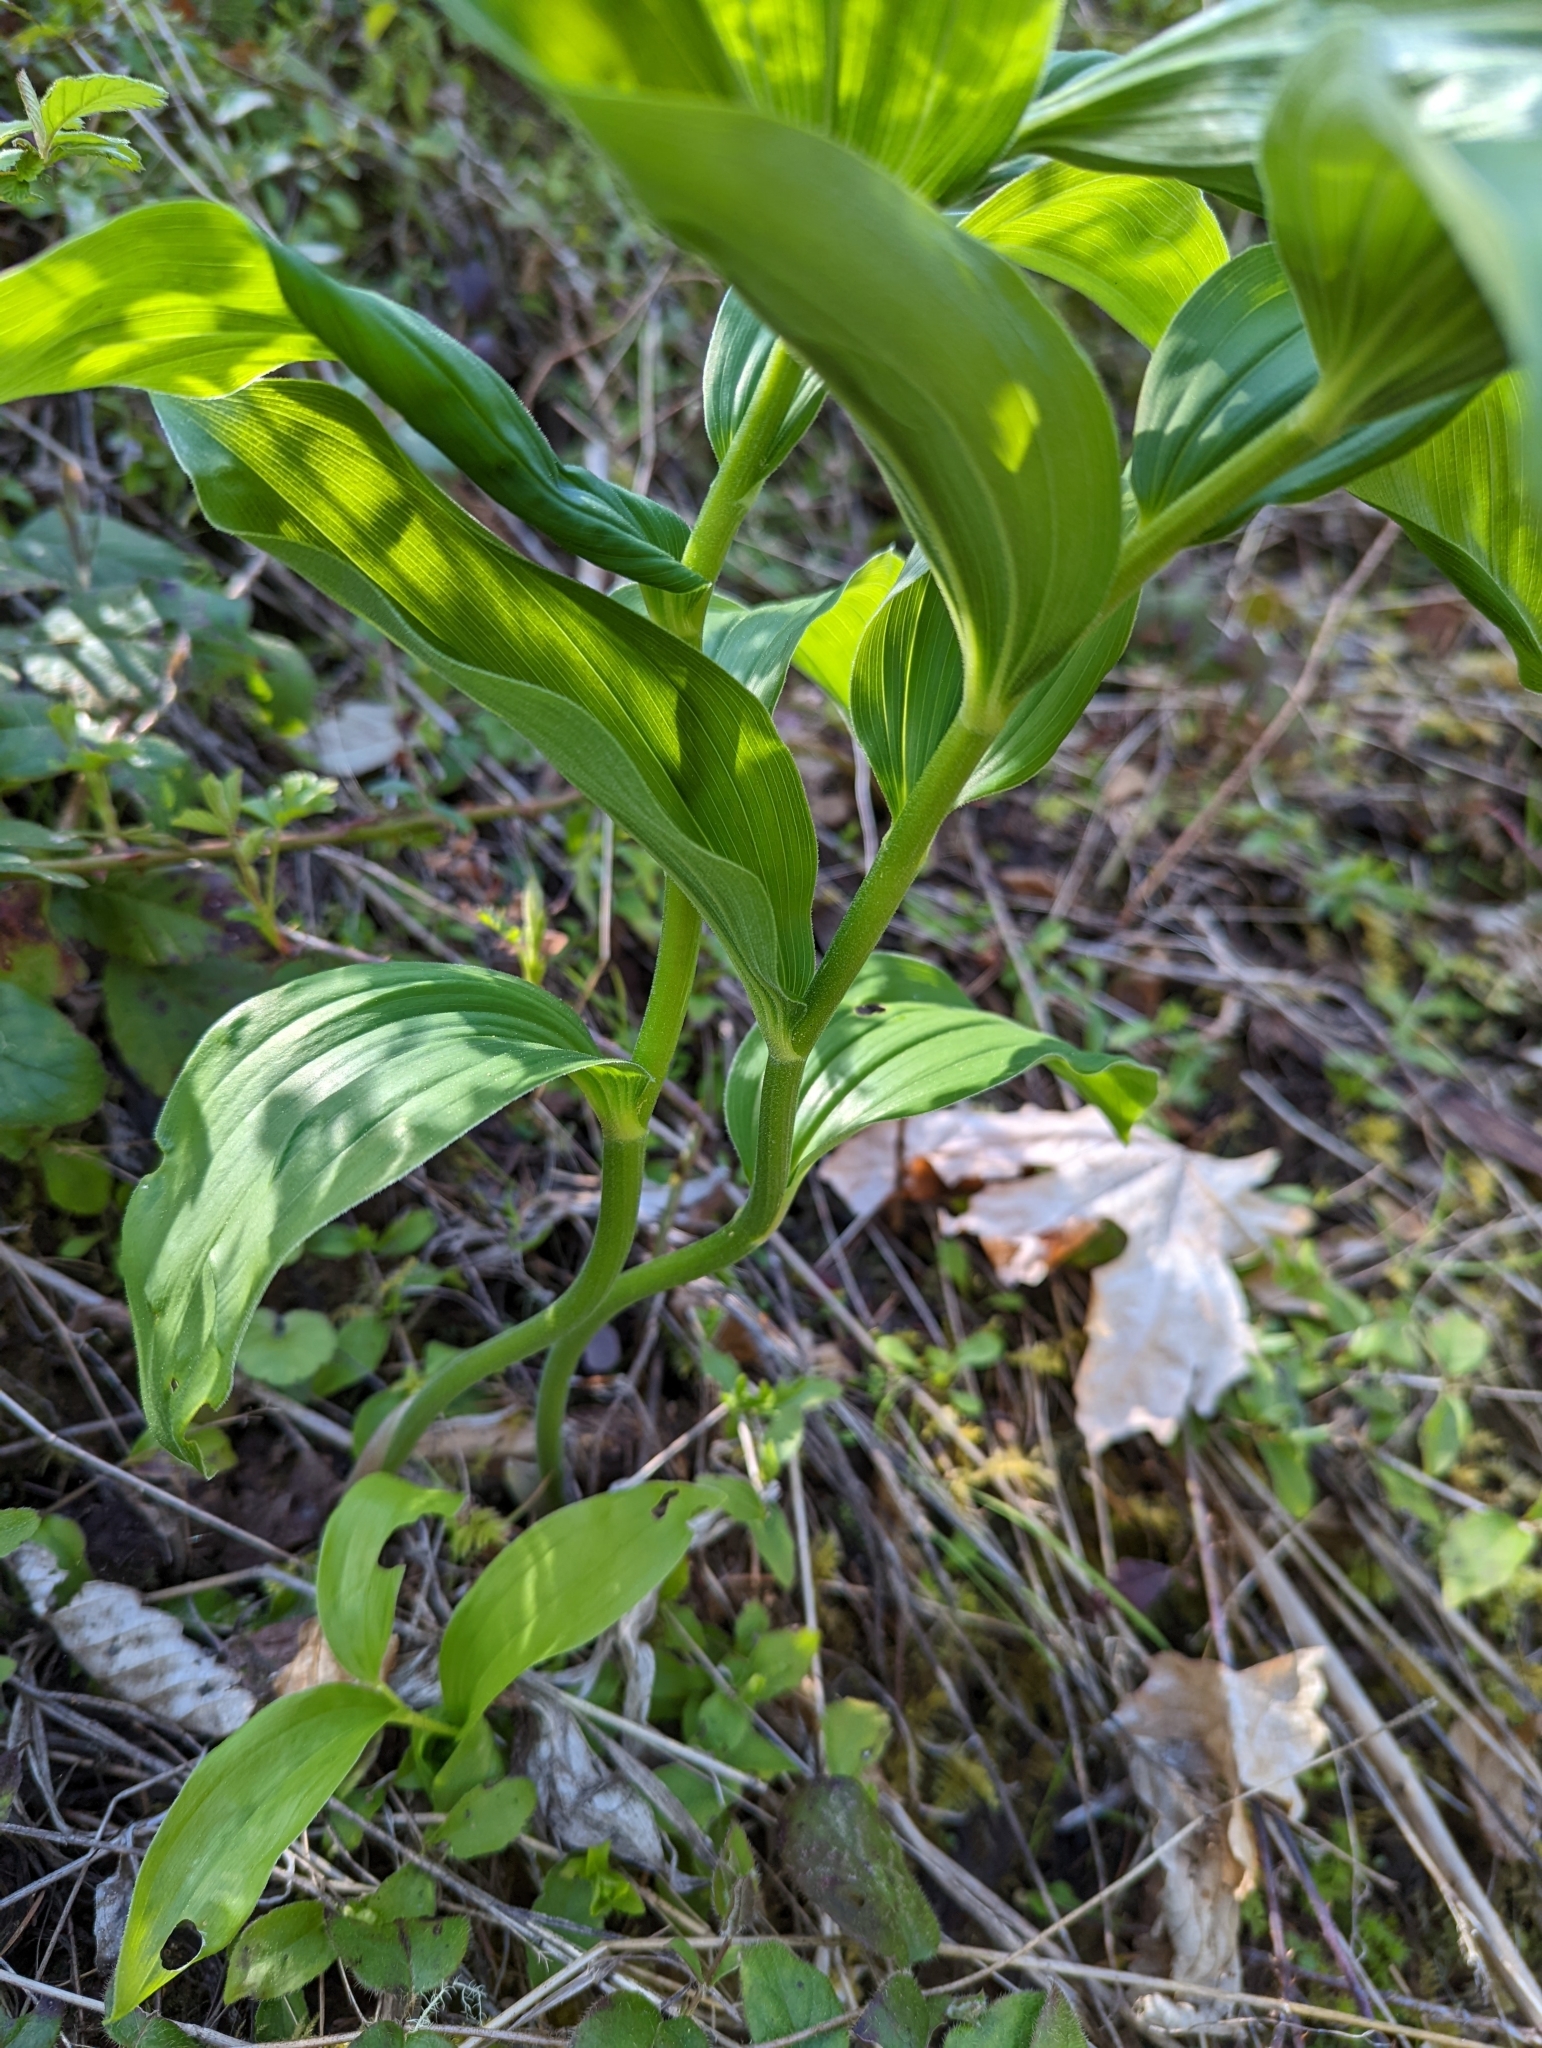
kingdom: Plantae
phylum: Tracheophyta
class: Liliopsida
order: Asparagales
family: Asparagaceae
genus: Maianthemum
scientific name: Maianthemum racemosum
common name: False spikenard
